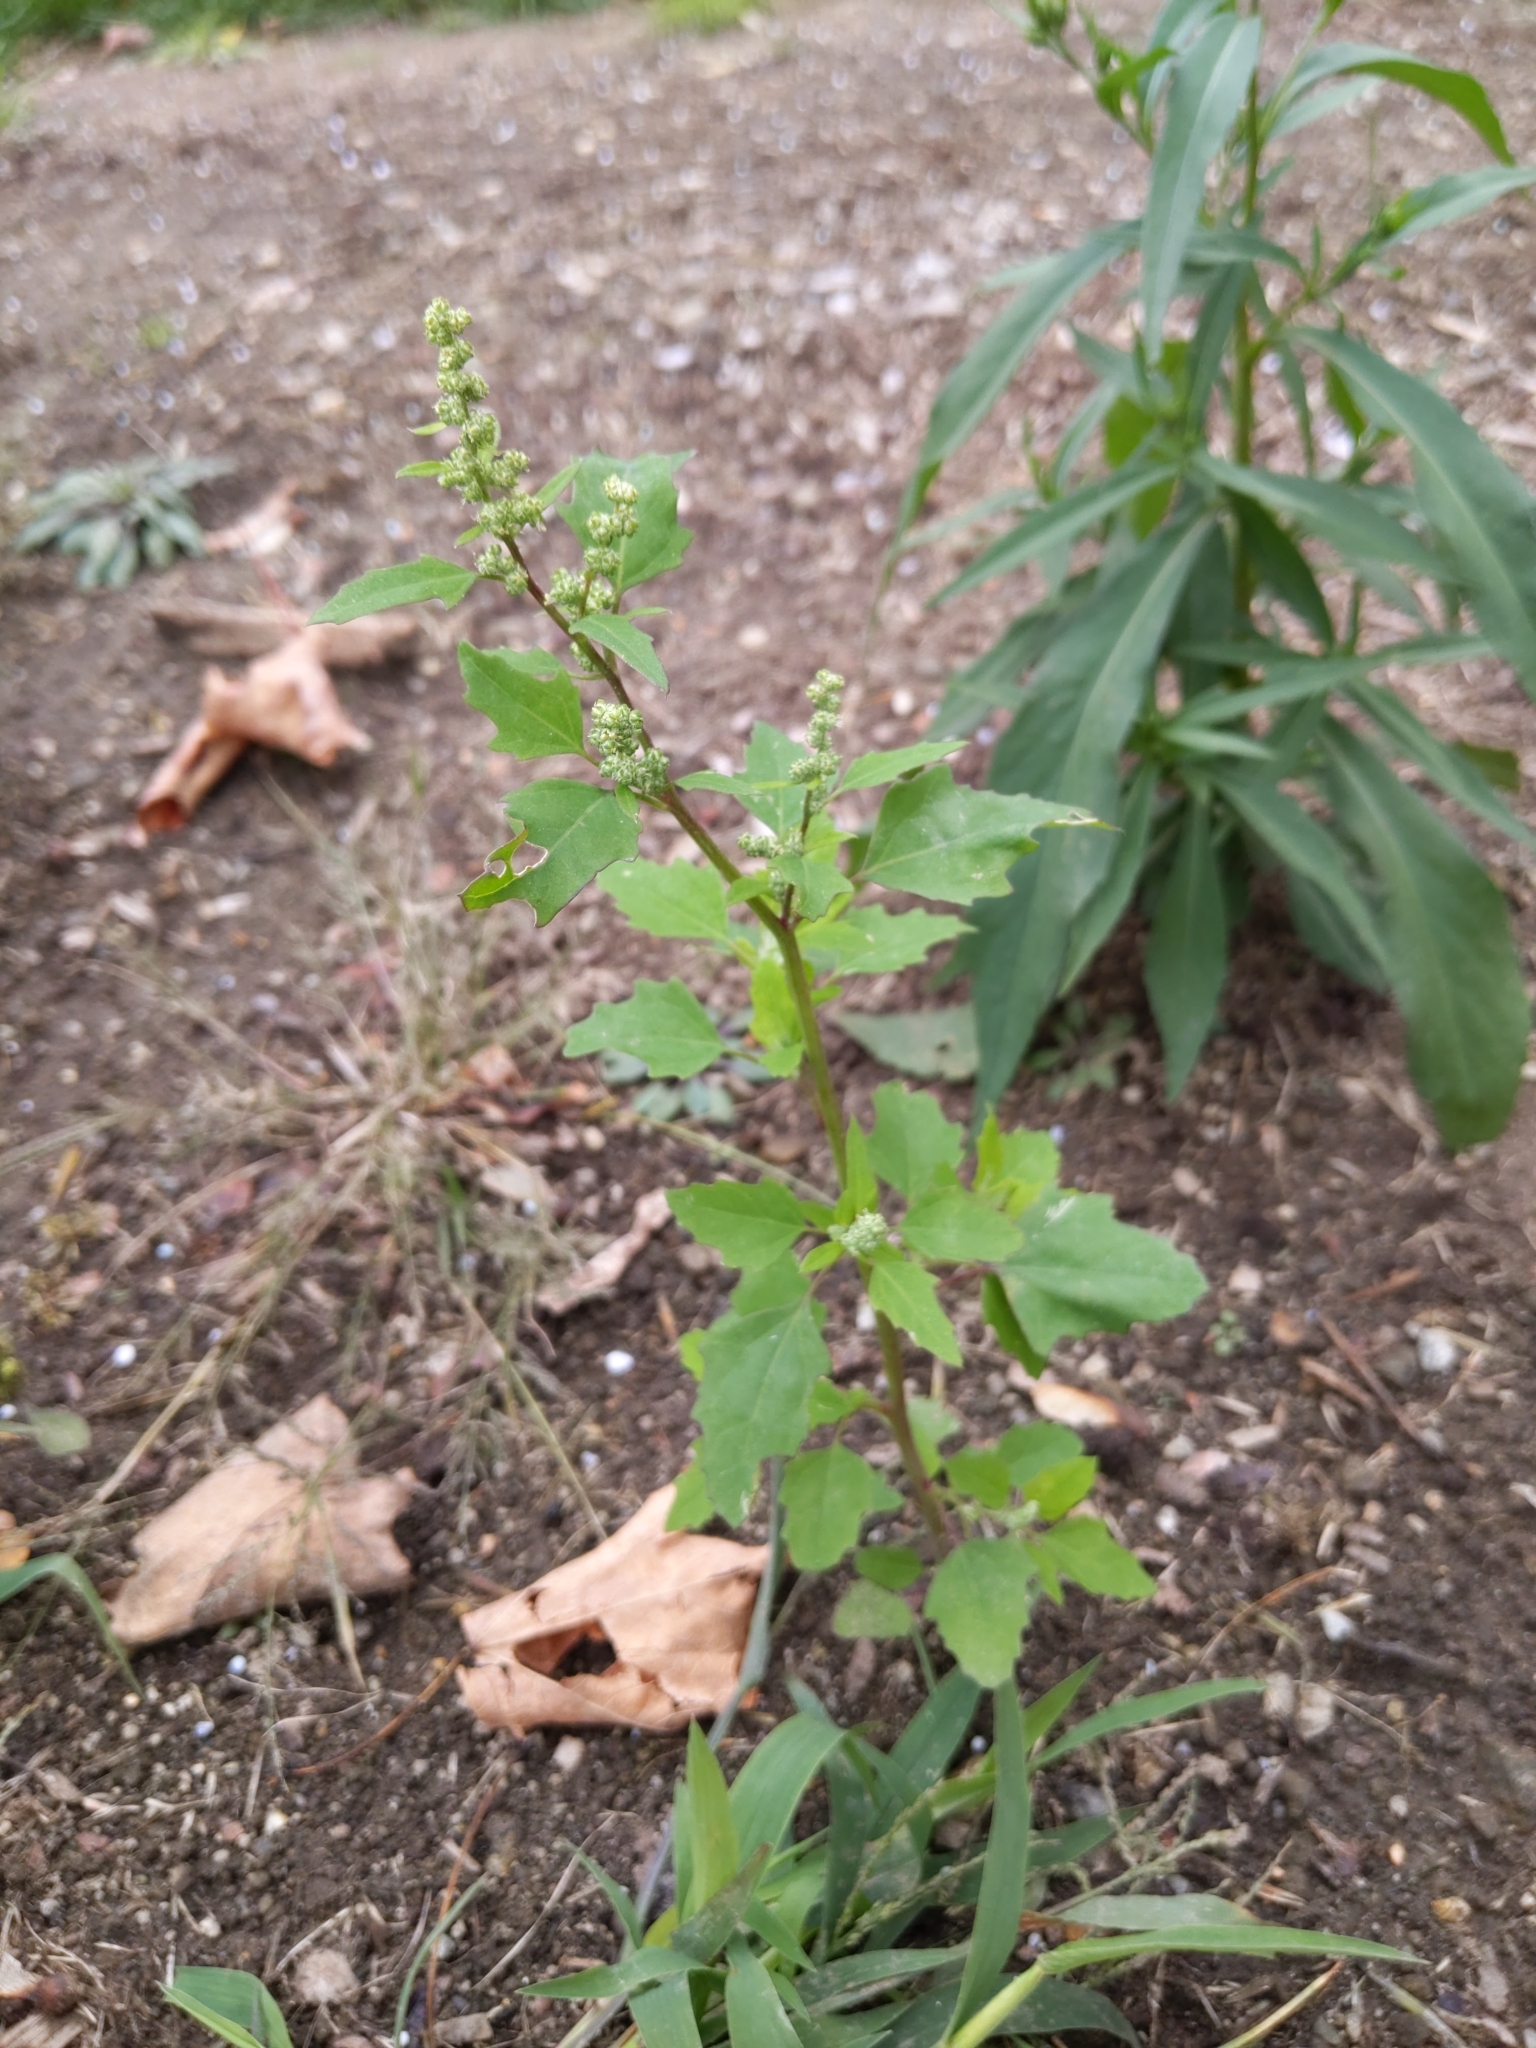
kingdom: Plantae
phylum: Tracheophyta
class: Magnoliopsida
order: Caryophyllales
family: Amaranthaceae
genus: Chenopodium
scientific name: Chenopodium album
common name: Fat-hen
